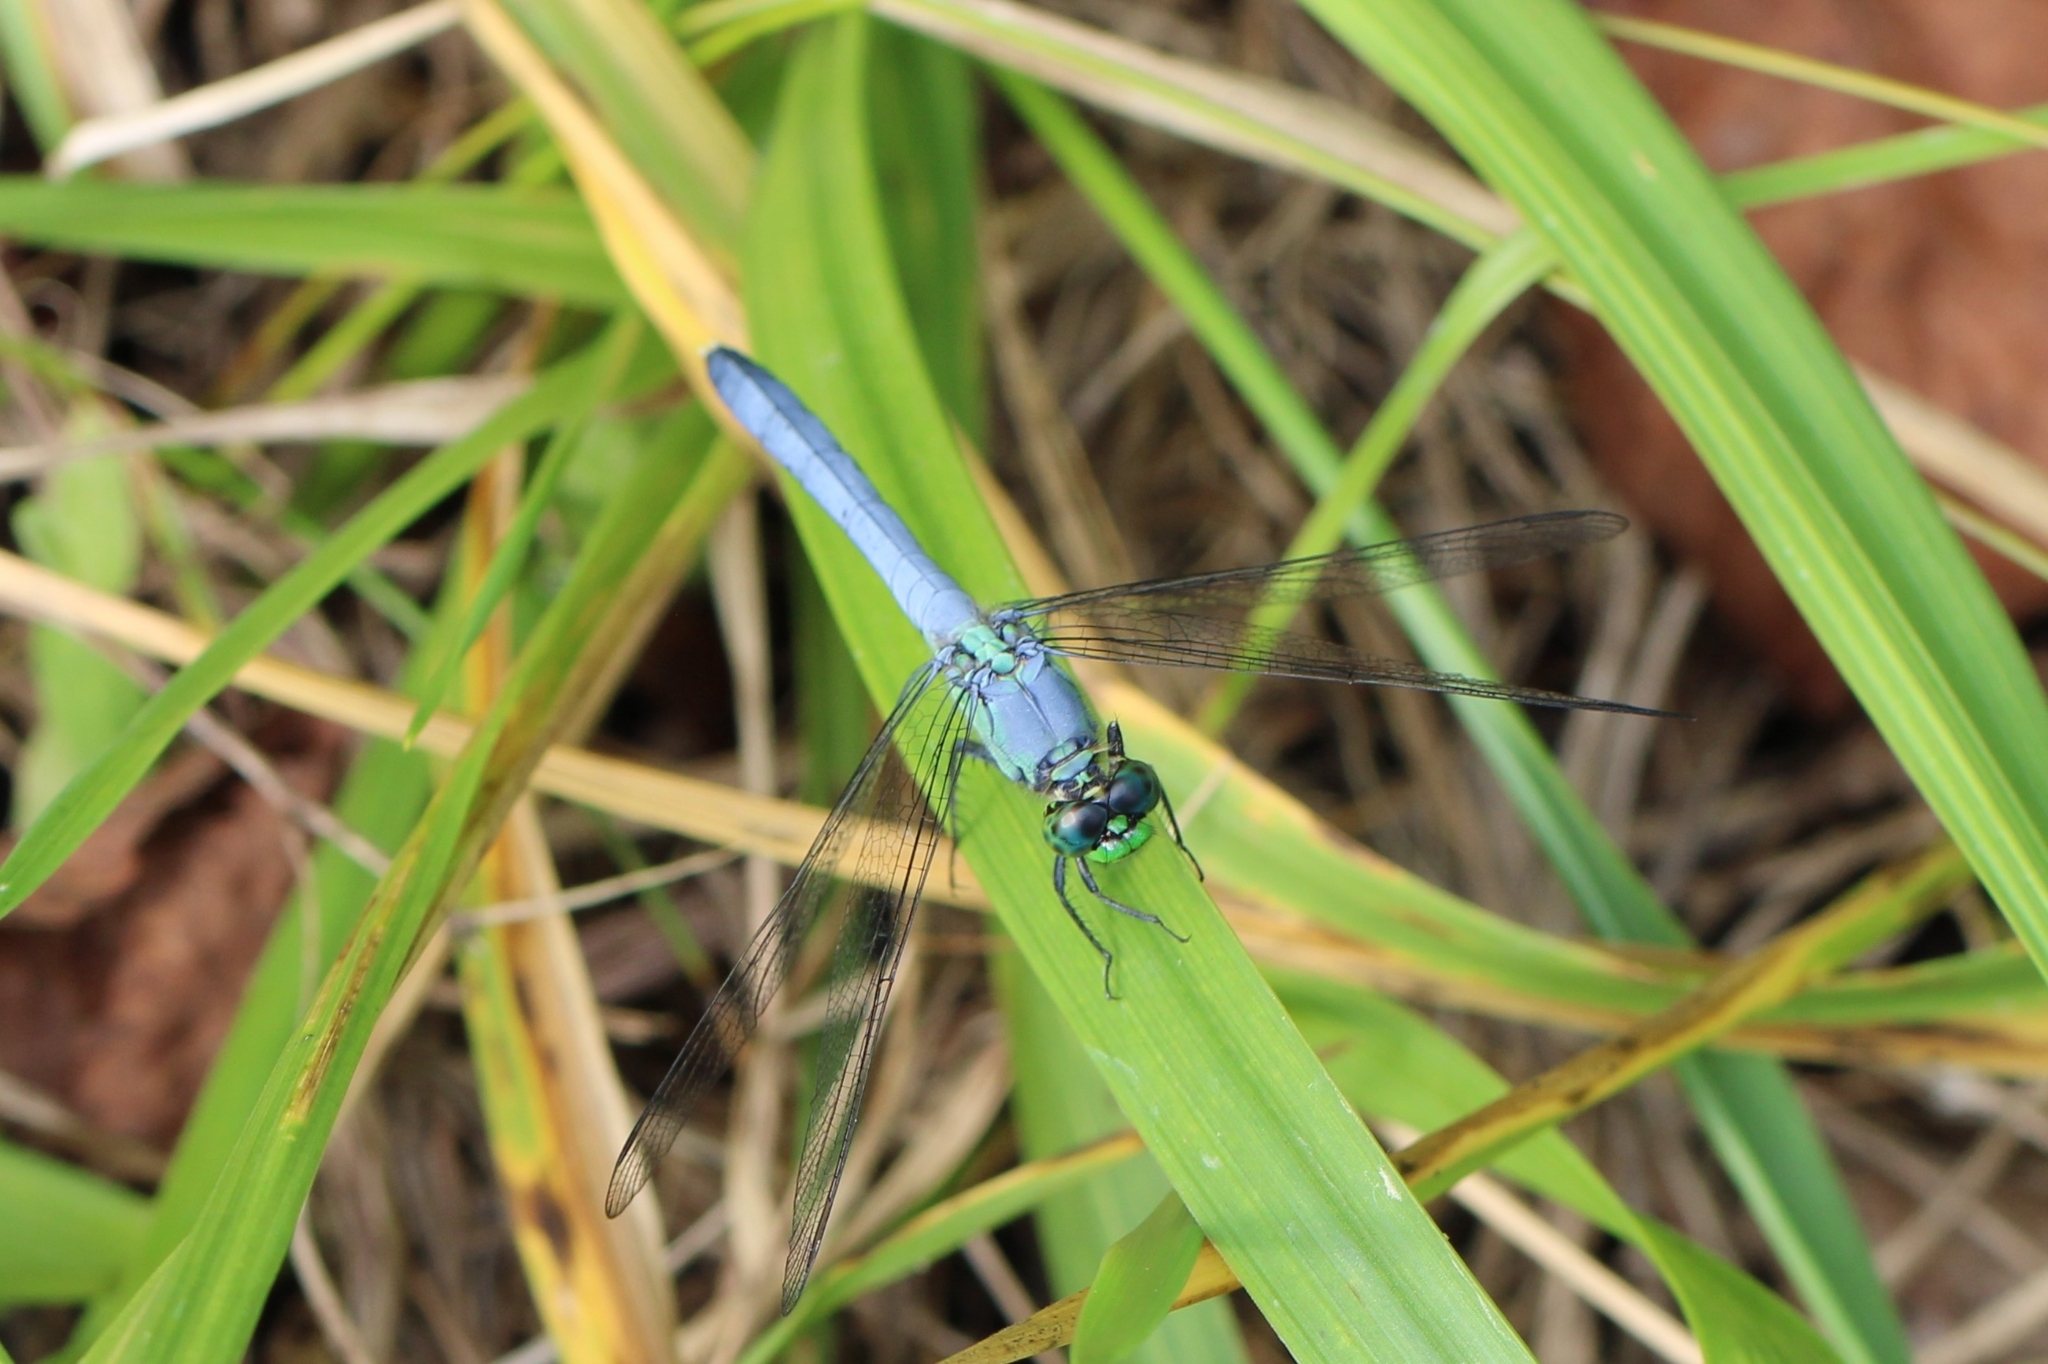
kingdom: Animalia
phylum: Arthropoda
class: Insecta
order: Odonata
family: Libellulidae
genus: Erythemis
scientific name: Erythemis simplicicollis
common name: Eastern pondhawk
